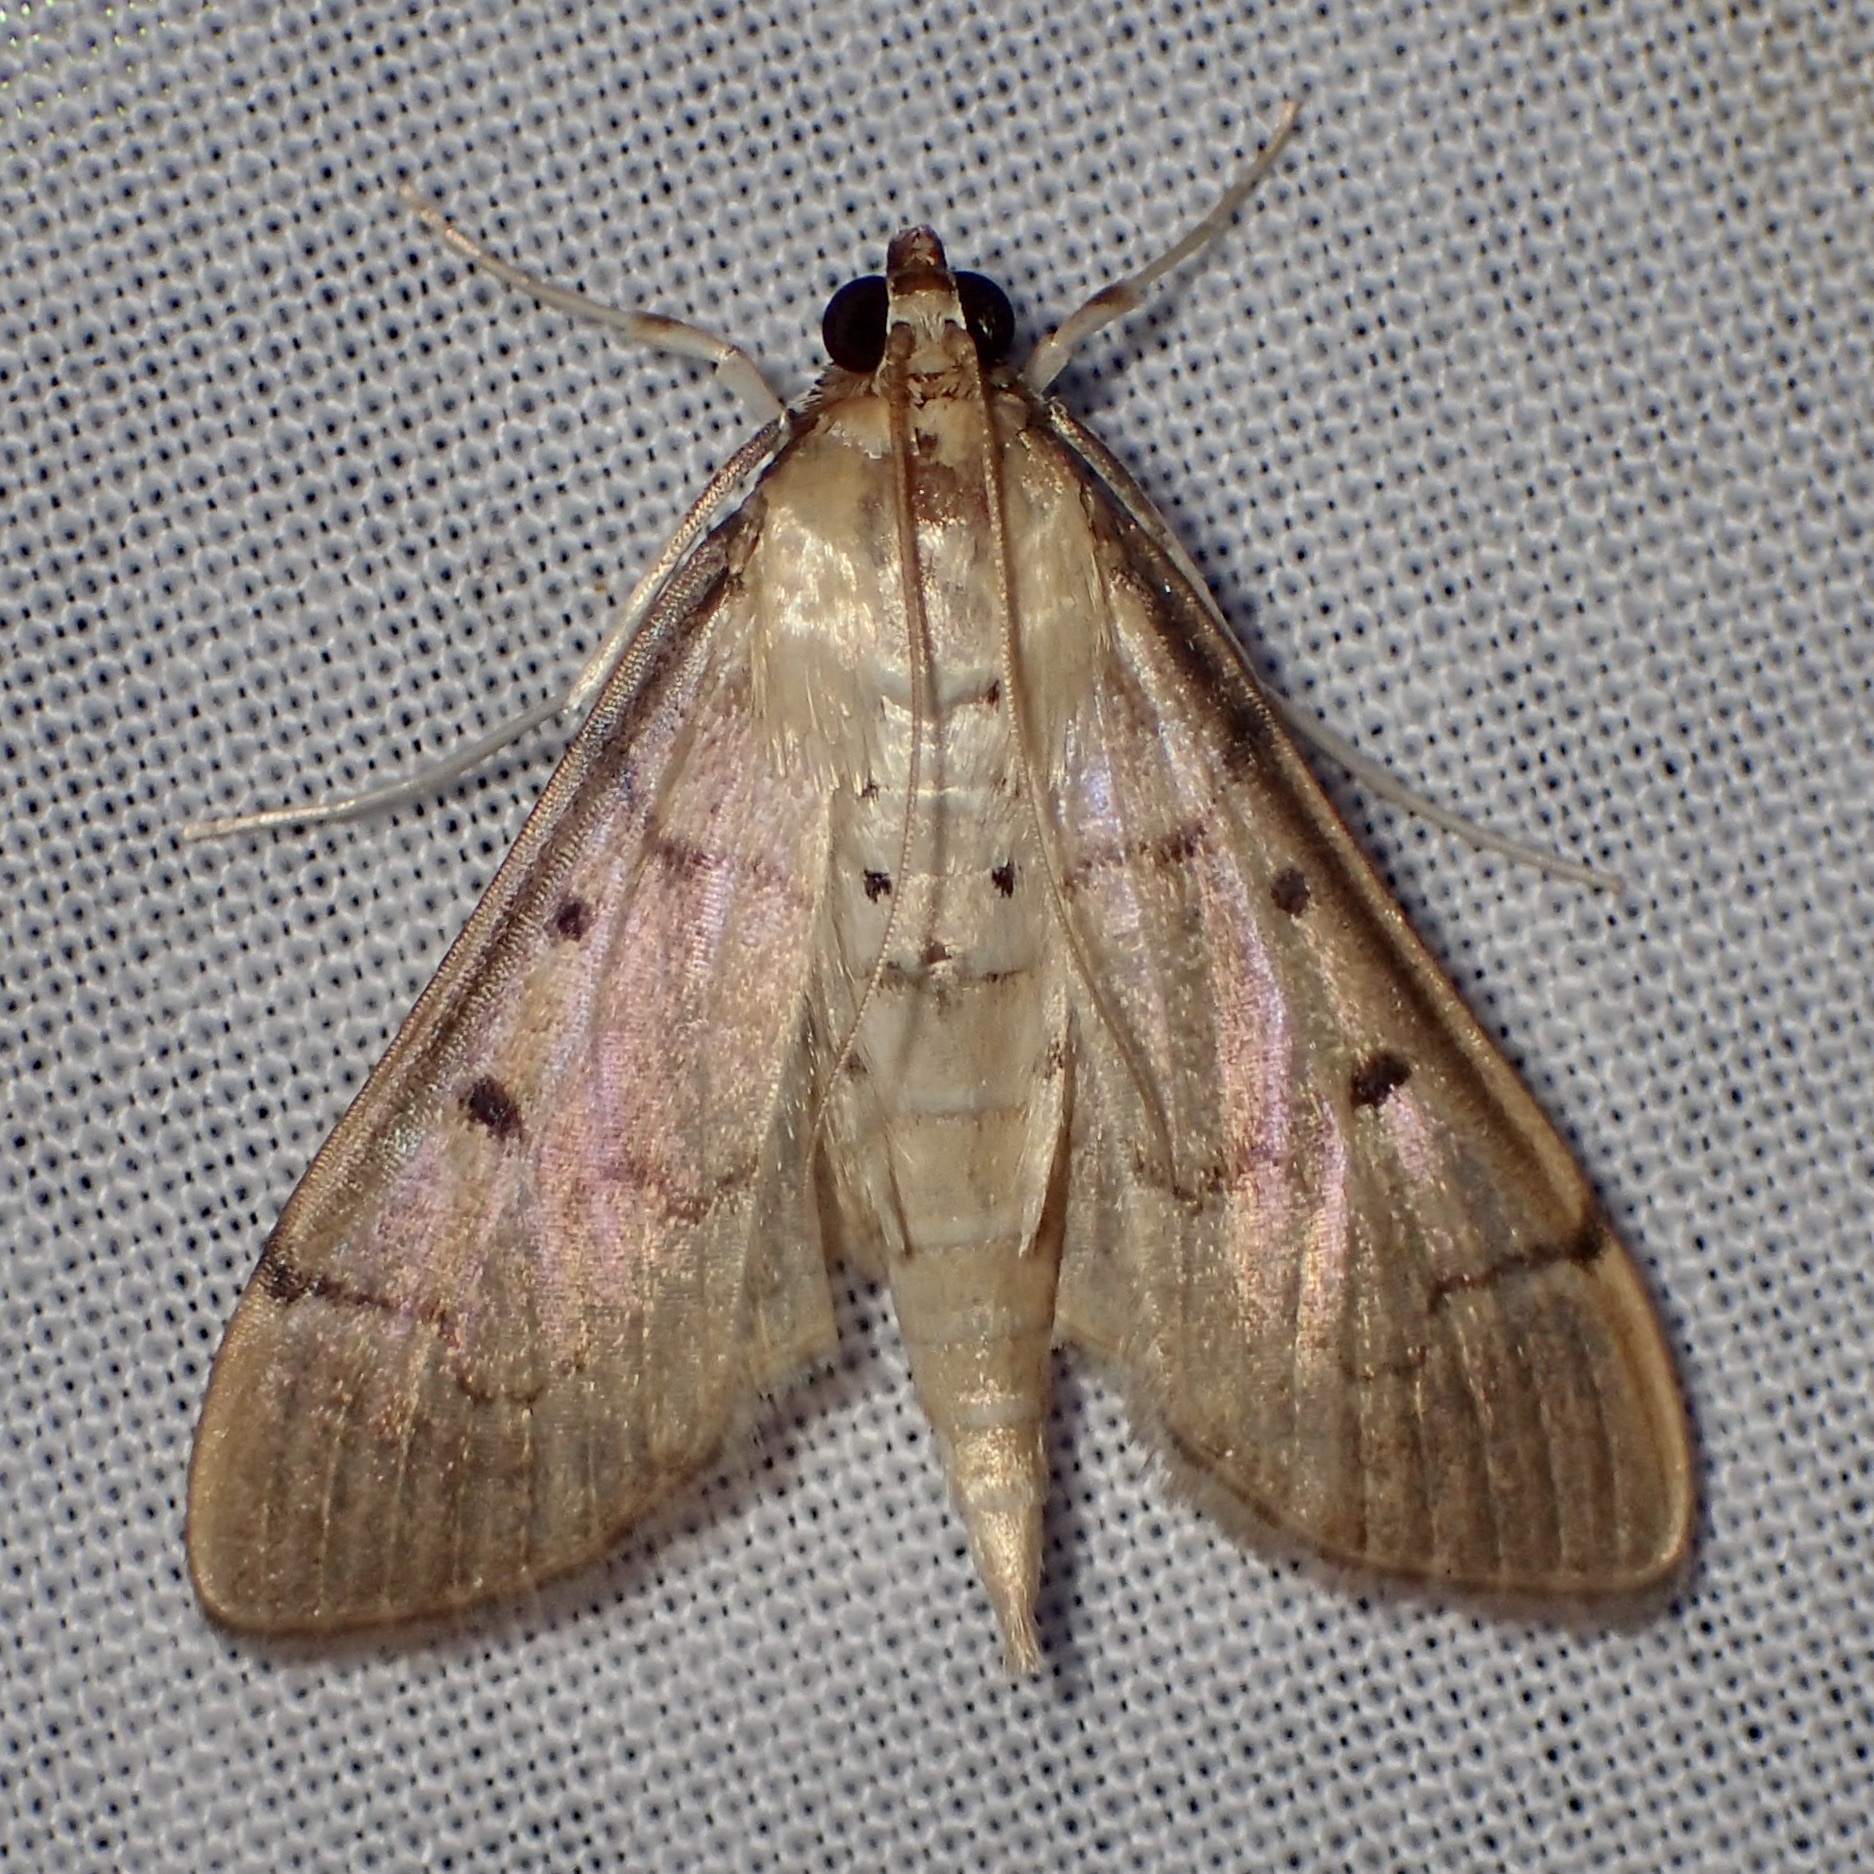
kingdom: Animalia
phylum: Arthropoda
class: Insecta
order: Lepidoptera
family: Crambidae
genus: Herpetogramma
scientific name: Herpetogramma bipunctalis
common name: Southern beet webworm
